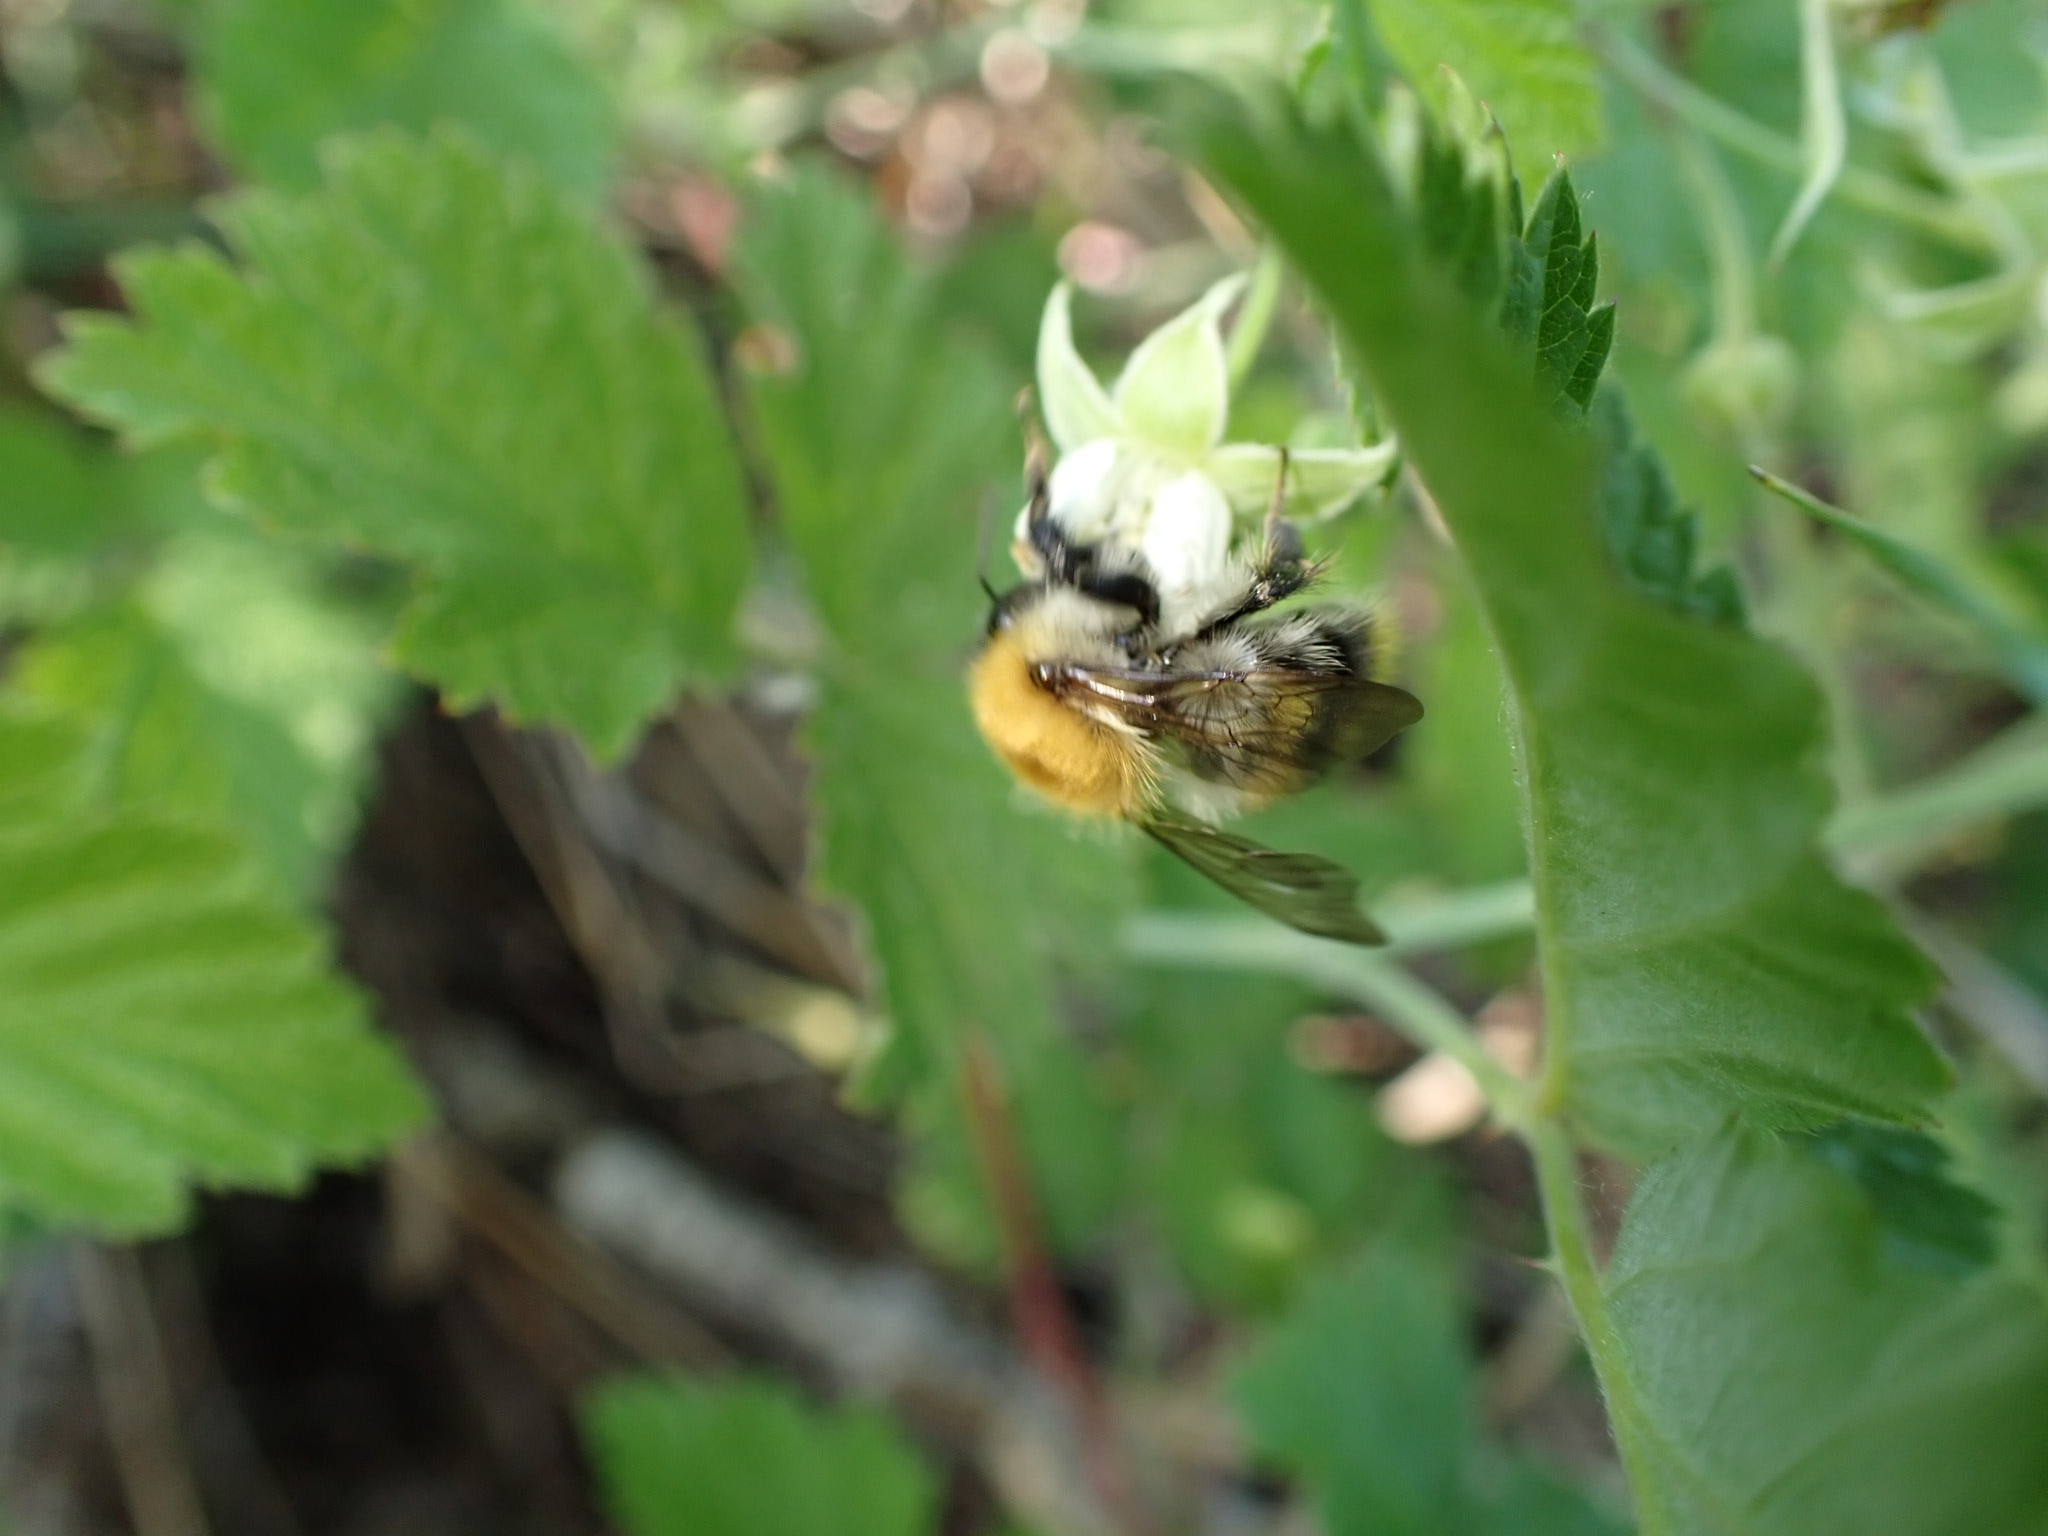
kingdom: Animalia
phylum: Arthropoda
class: Insecta
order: Hymenoptera
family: Apidae
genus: Bombus
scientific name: Bombus pascuorum
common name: Common carder bee
